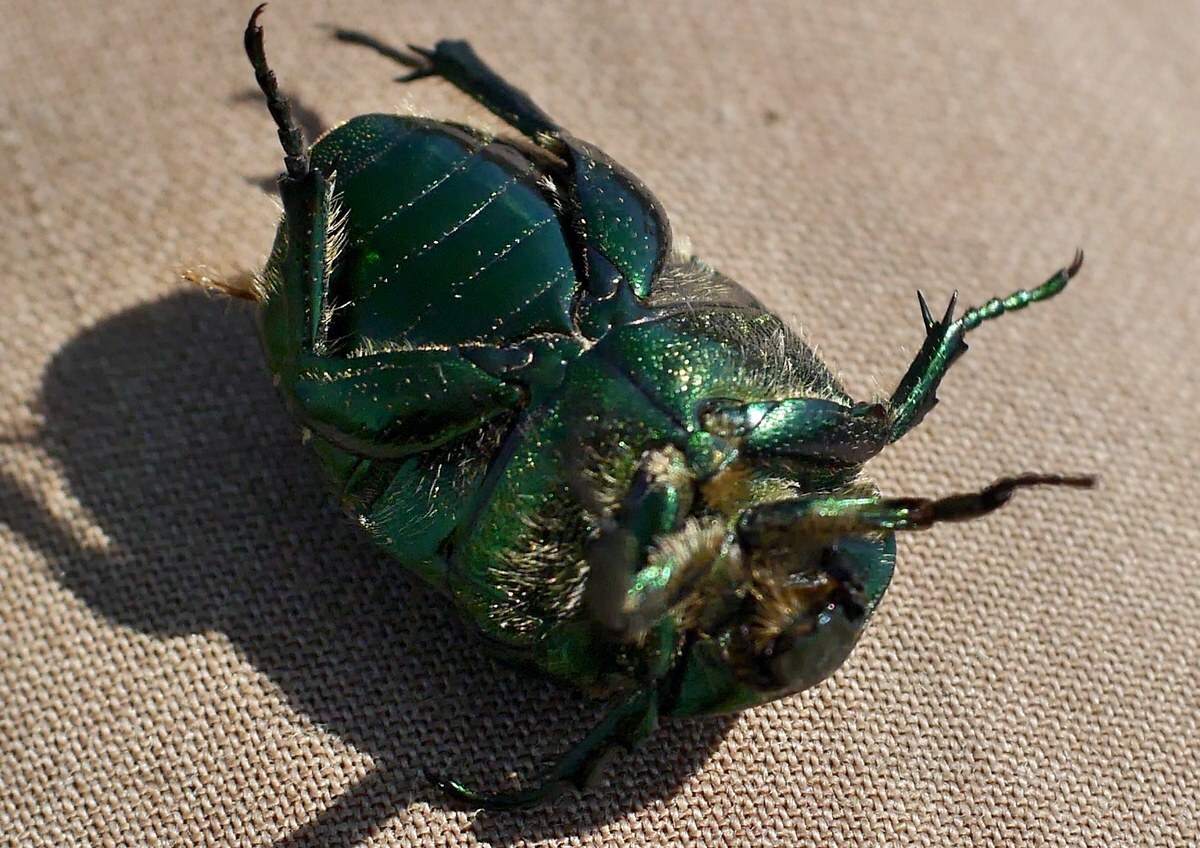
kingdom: Animalia
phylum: Arthropoda
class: Insecta
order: Coleoptera
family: Scarabaeidae
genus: Protaetia
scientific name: Protaetia ungarica
